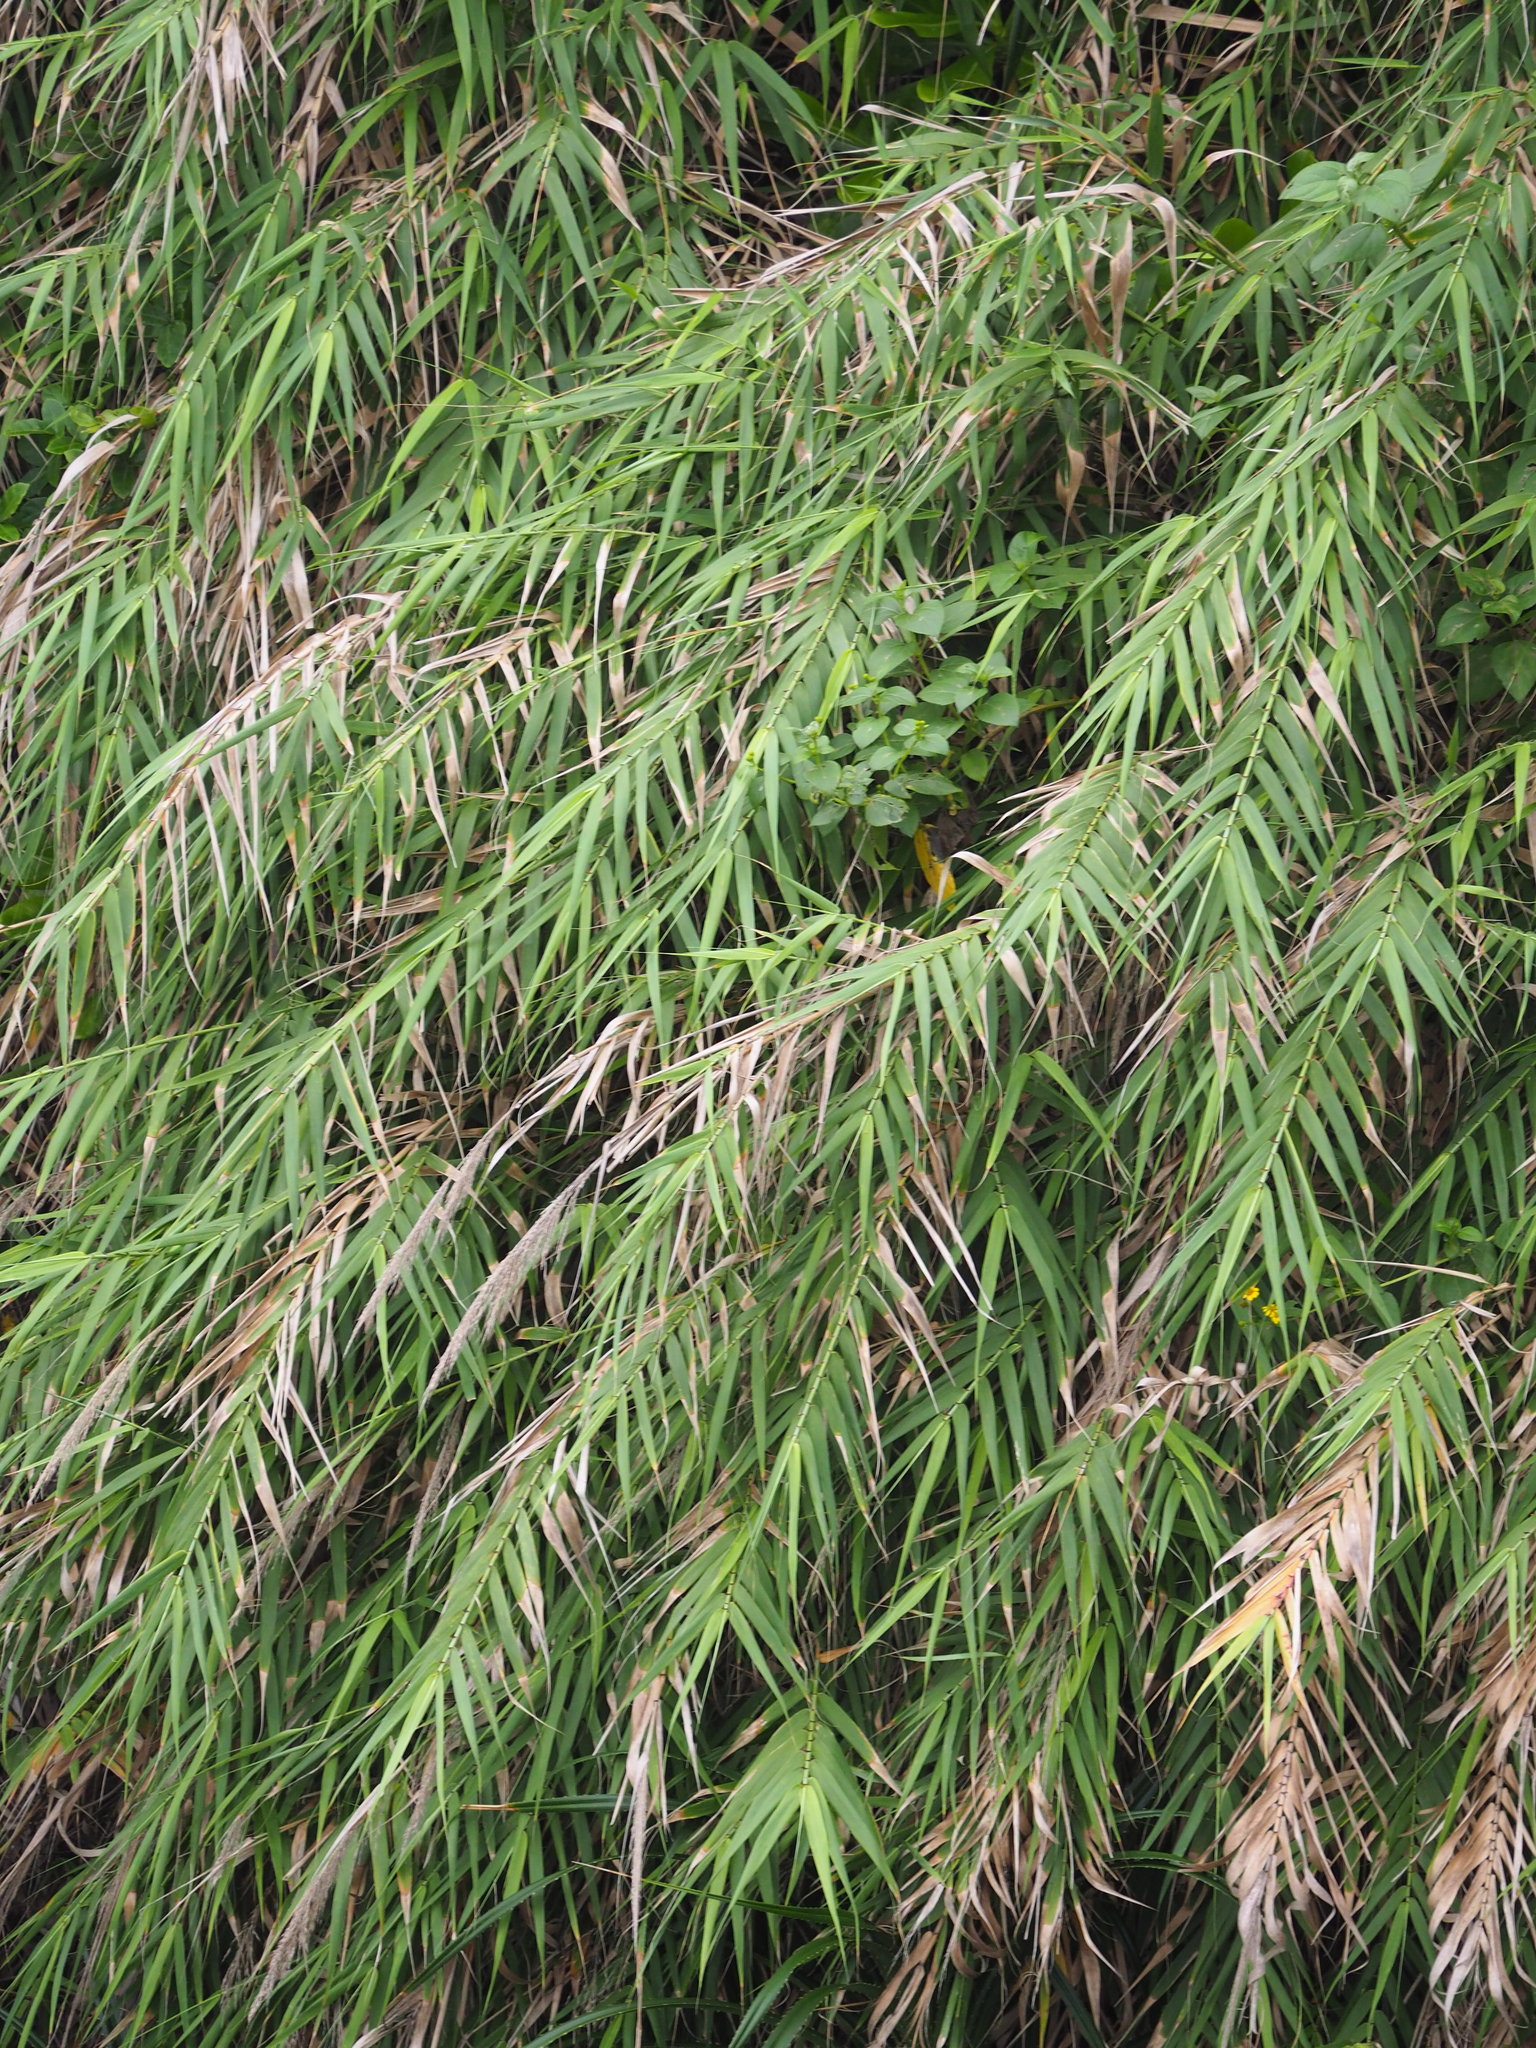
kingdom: Plantae
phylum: Tracheophyta
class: Liliopsida
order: Poales
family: Poaceae
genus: Arundo
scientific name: Arundo formosana
